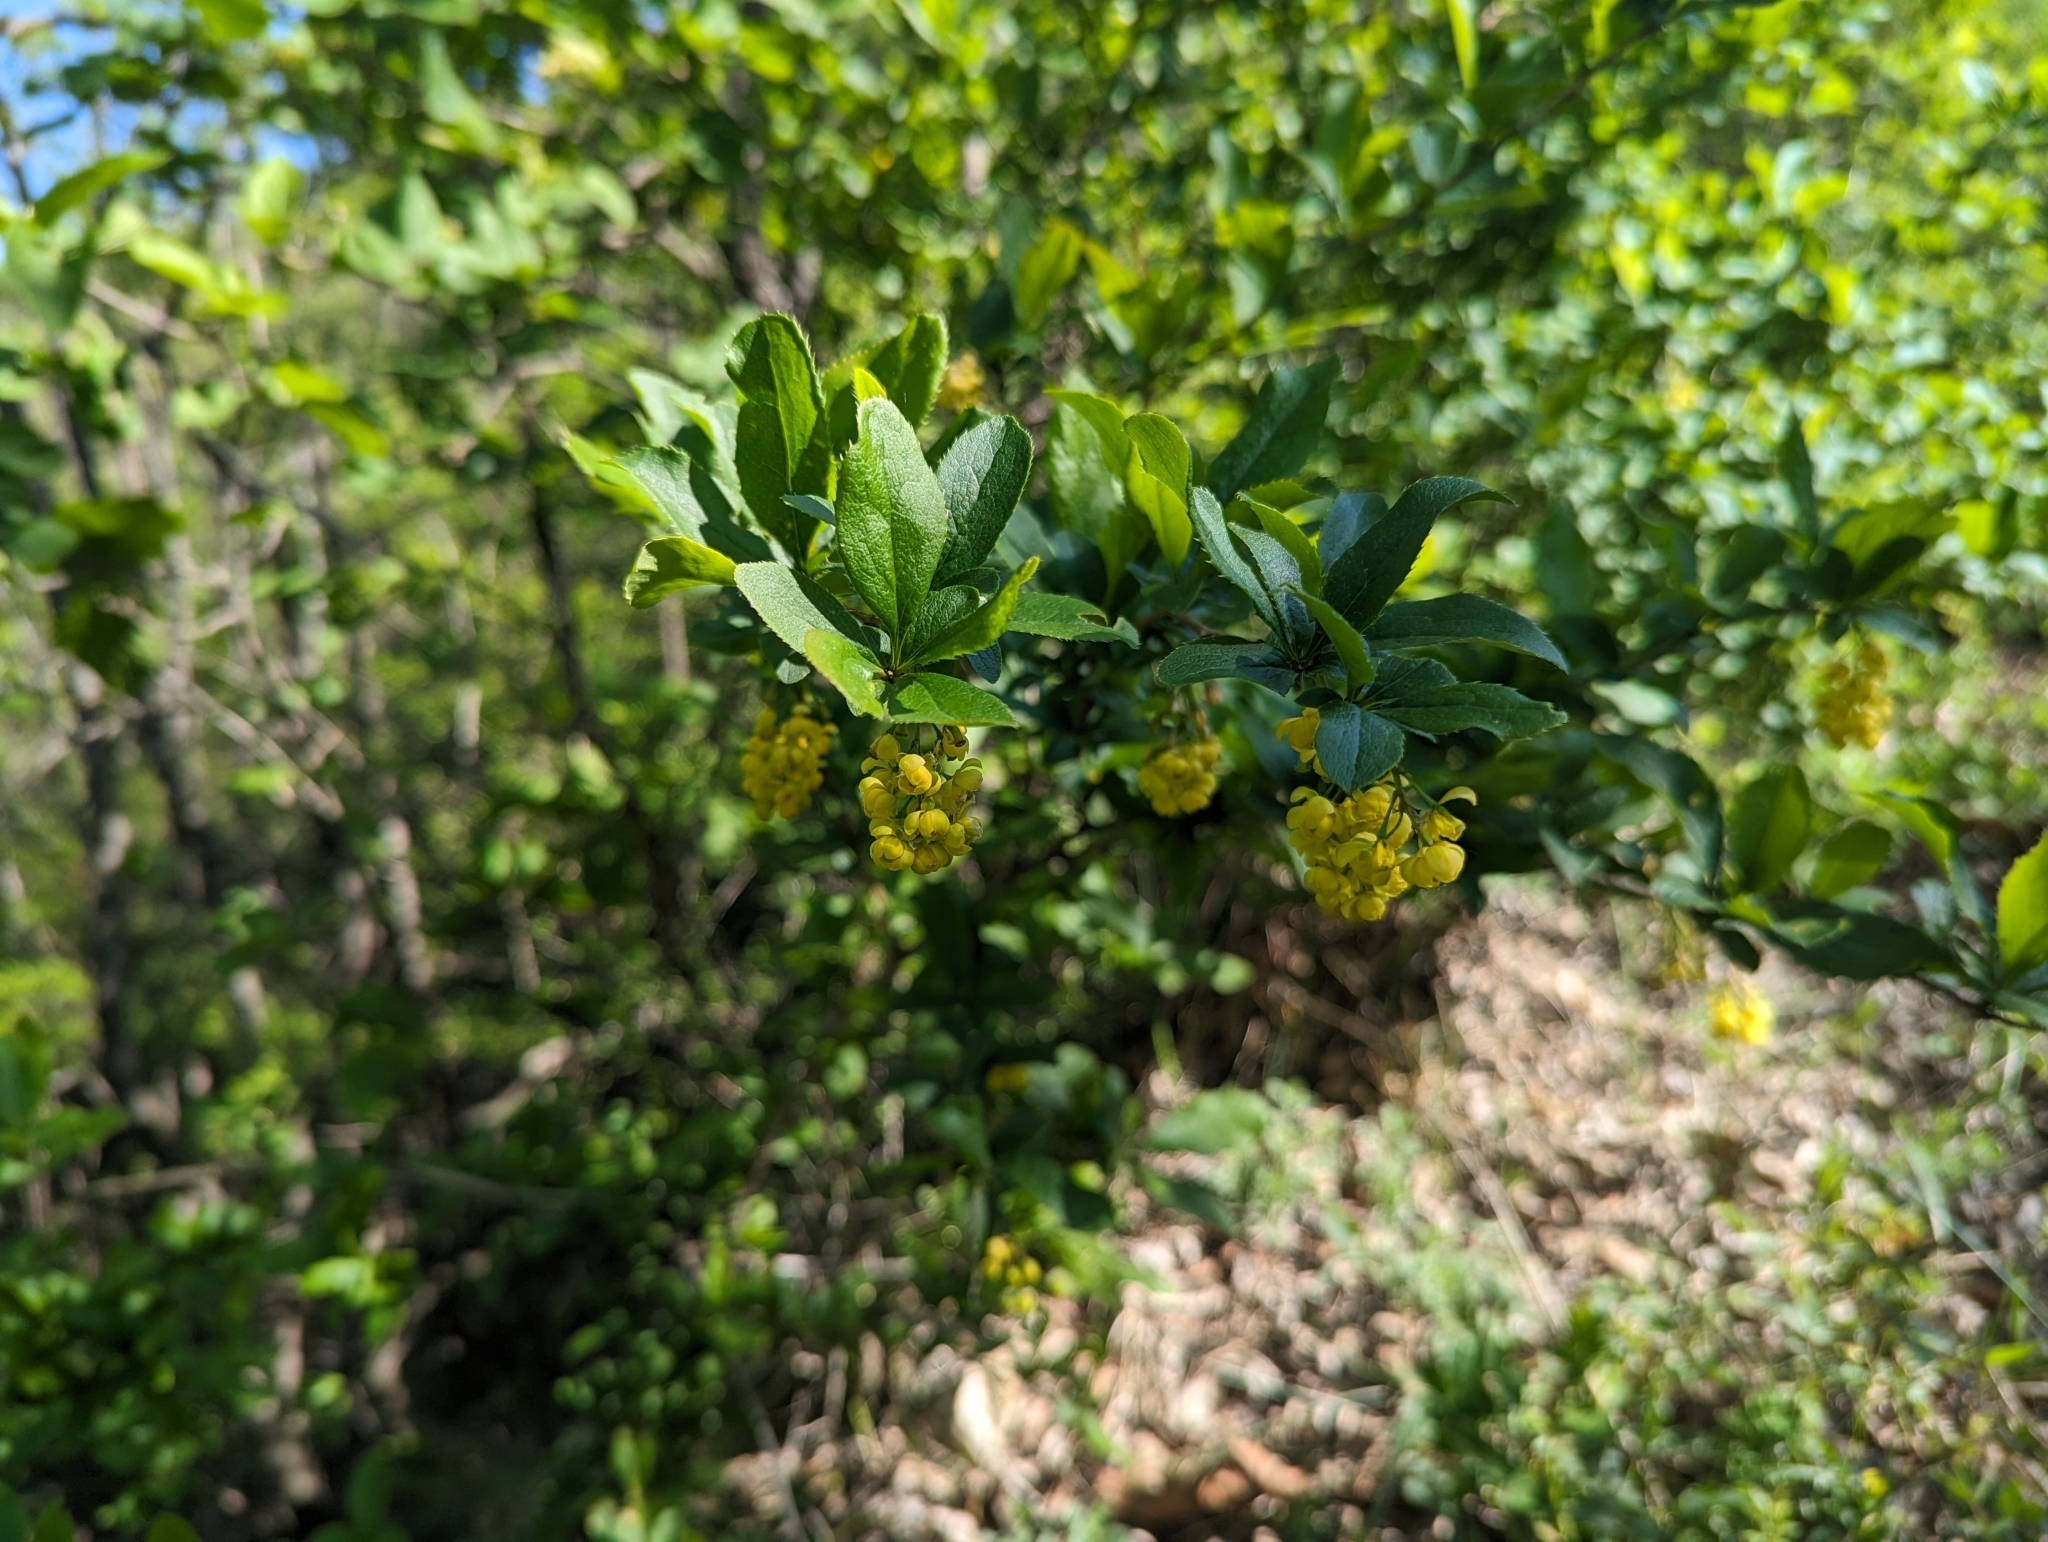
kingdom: Plantae
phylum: Tracheophyta
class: Magnoliopsida
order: Ranunculales
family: Berberidaceae
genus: Berberis
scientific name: Berberis vulgaris
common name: Barberry
